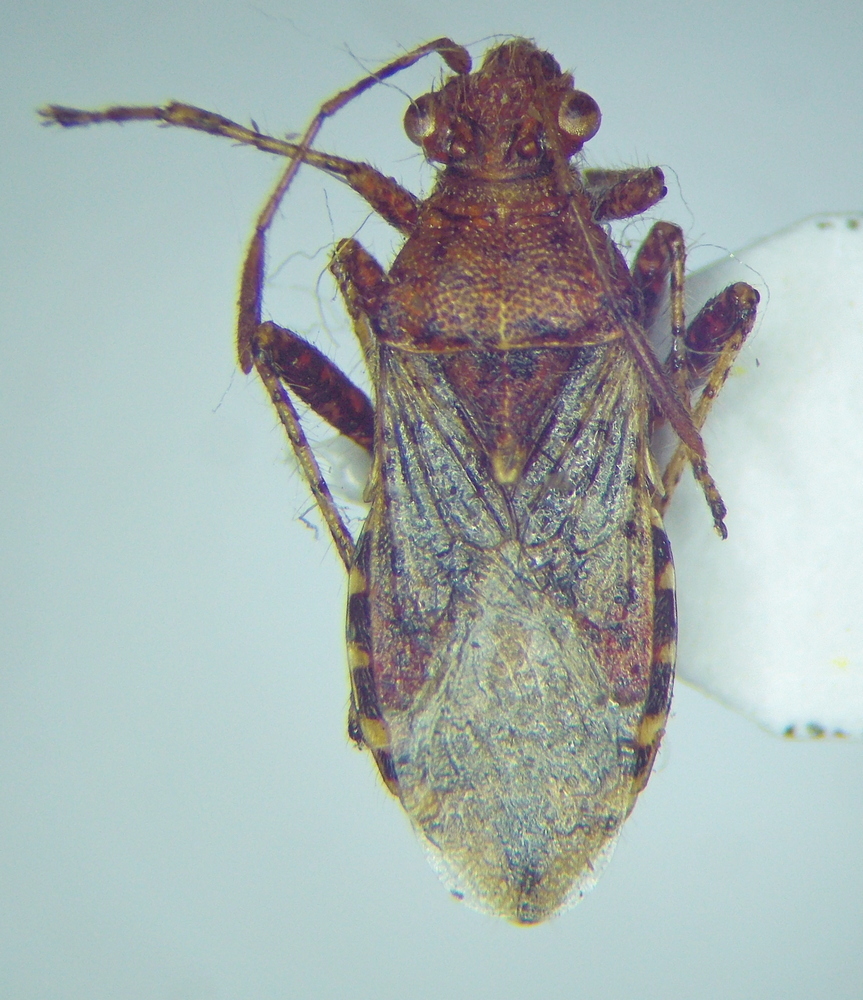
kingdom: Animalia
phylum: Arthropoda
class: Insecta
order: Hemiptera
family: Rhopalidae
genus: Rhopalus
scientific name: Rhopalus subrufus
